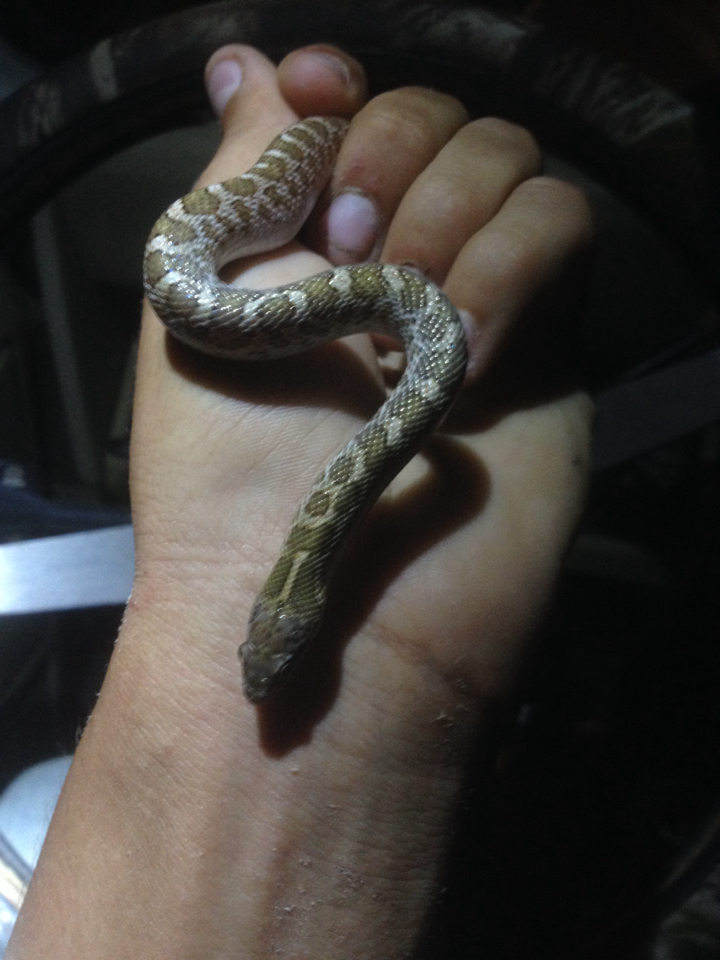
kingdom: Animalia
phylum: Chordata
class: Squamata
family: Colubridae
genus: Arizona
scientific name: Arizona elegans
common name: Glossy snake
